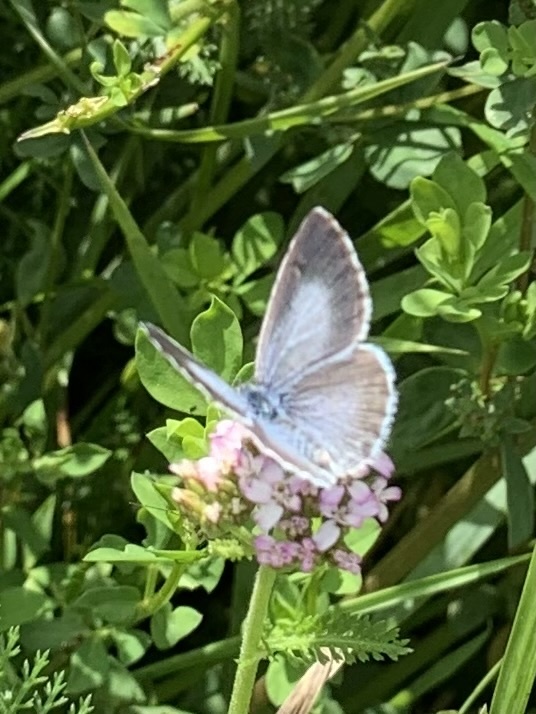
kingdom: Animalia
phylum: Arthropoda
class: Insecta
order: Lepidoptera
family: Lycaenidae
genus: Celastrina
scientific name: Celastrina argiolus
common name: Holly blue
